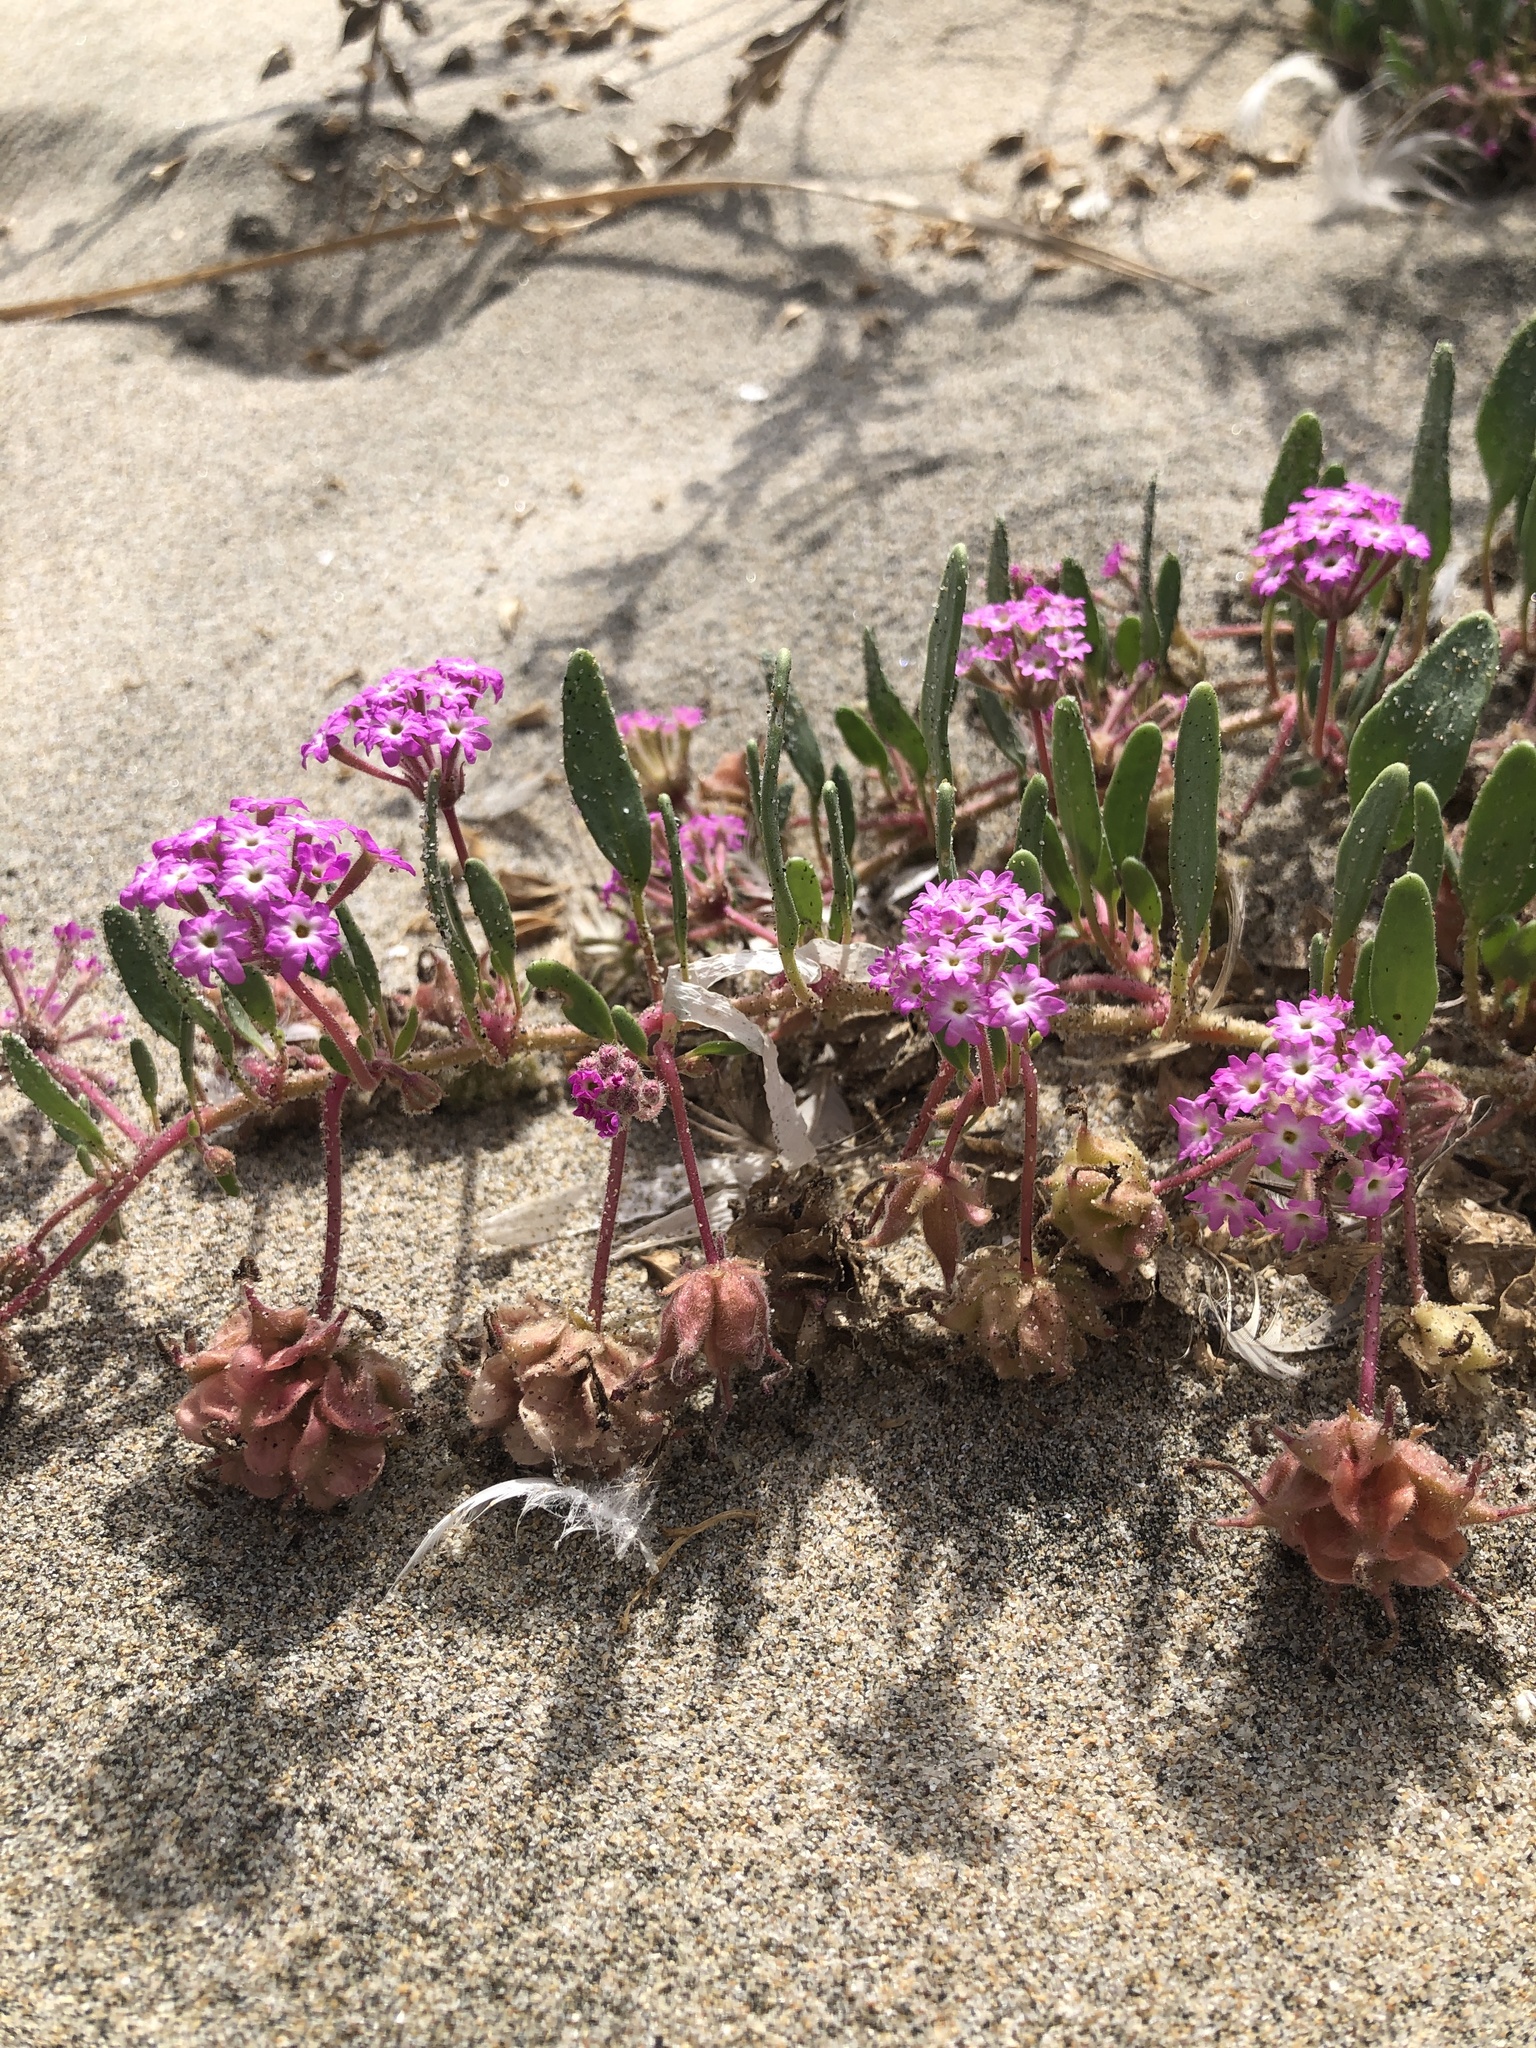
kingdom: Plantae
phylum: Tracheophyta
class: Magnoliopsida
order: Caryophyllales
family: Nyctaginaceae
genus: Abronia
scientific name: Abronia umbellata
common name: Sand-verbena
